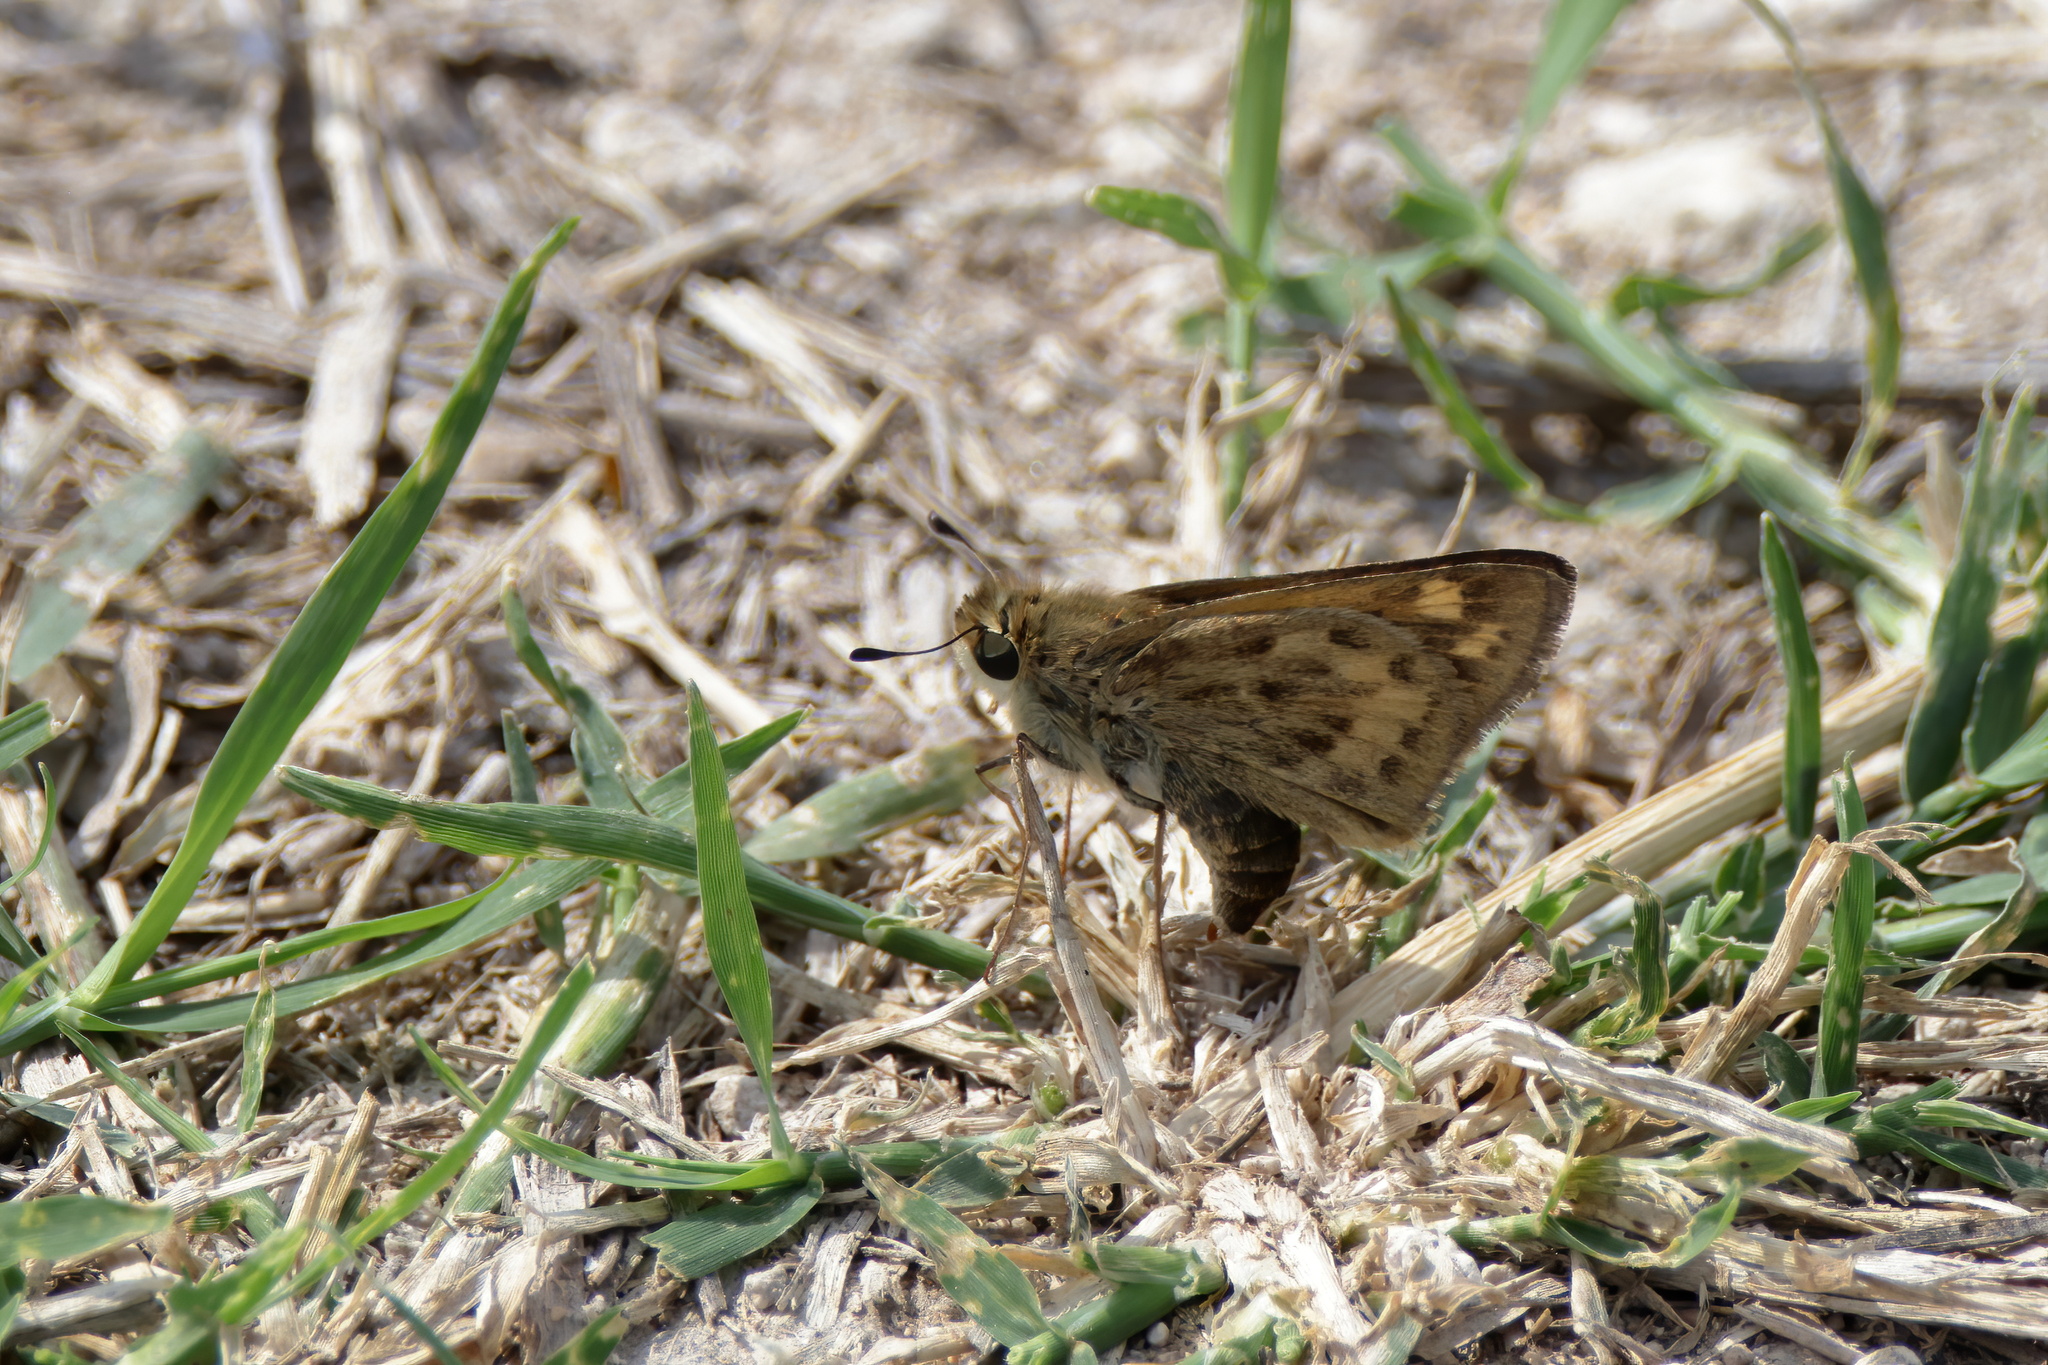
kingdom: Animalia
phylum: Arthropoda
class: Insecta
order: Lepidoptera
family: Hesperiidae
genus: Hylephila
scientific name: Hylephila phyleus
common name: Fiery skipper
